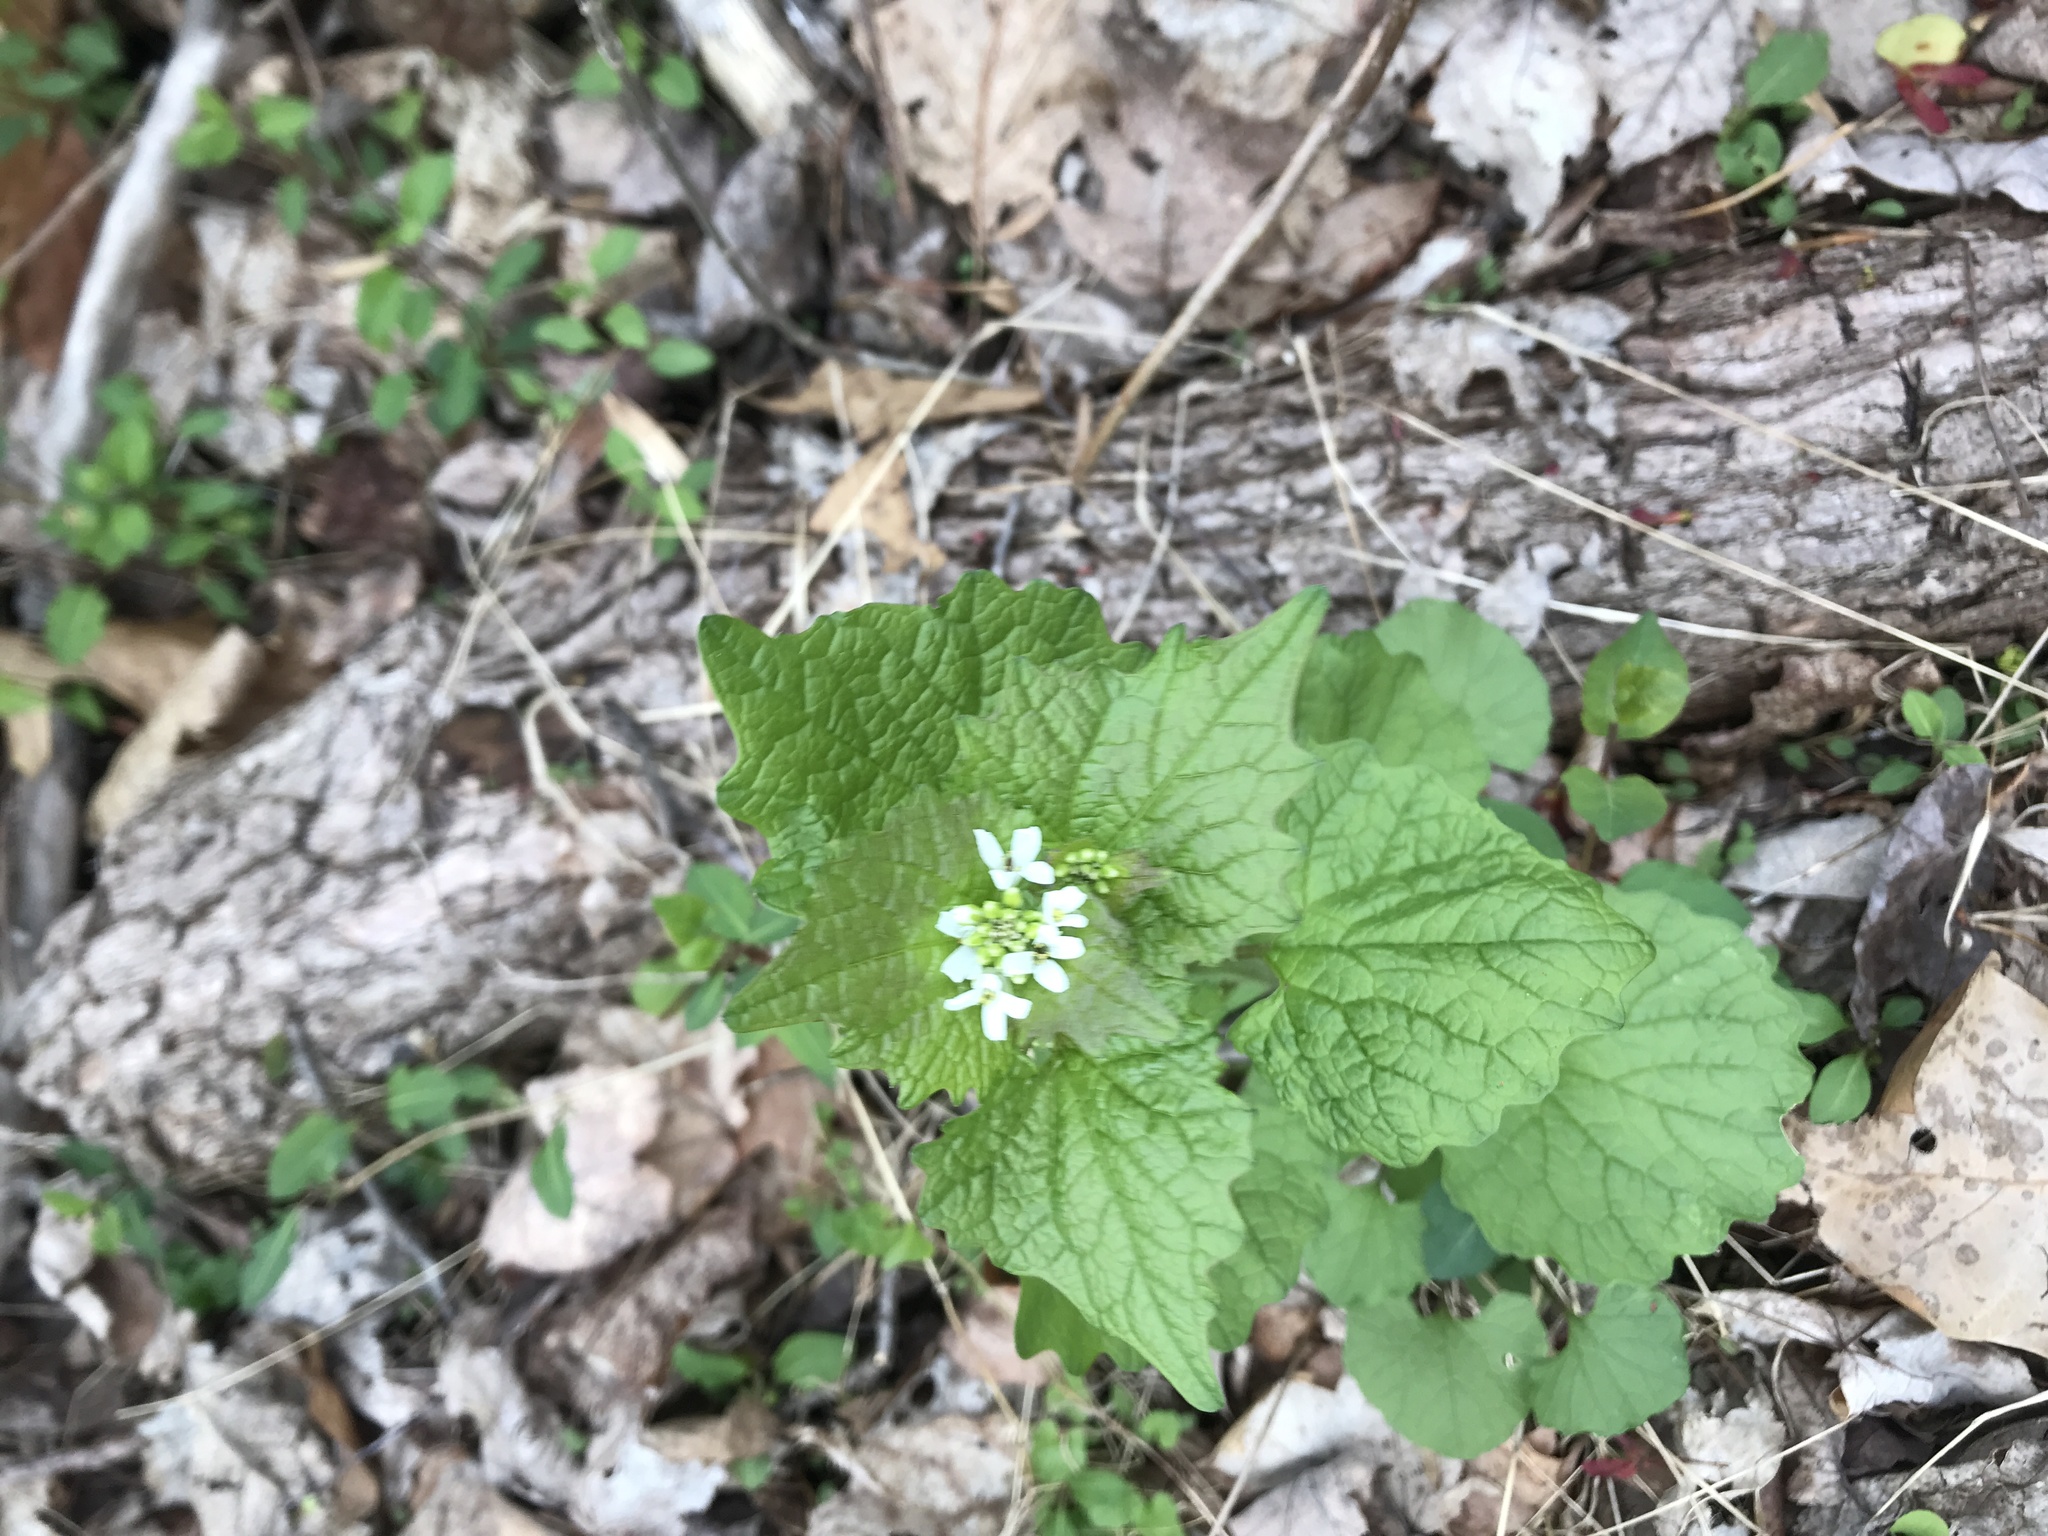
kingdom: Plantae
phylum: Tracheophyta
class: Magnoliopsida
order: Brassicales
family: Brassicaceae
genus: Alliaria
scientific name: Alliaria petiolata
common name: Garlic mustard
